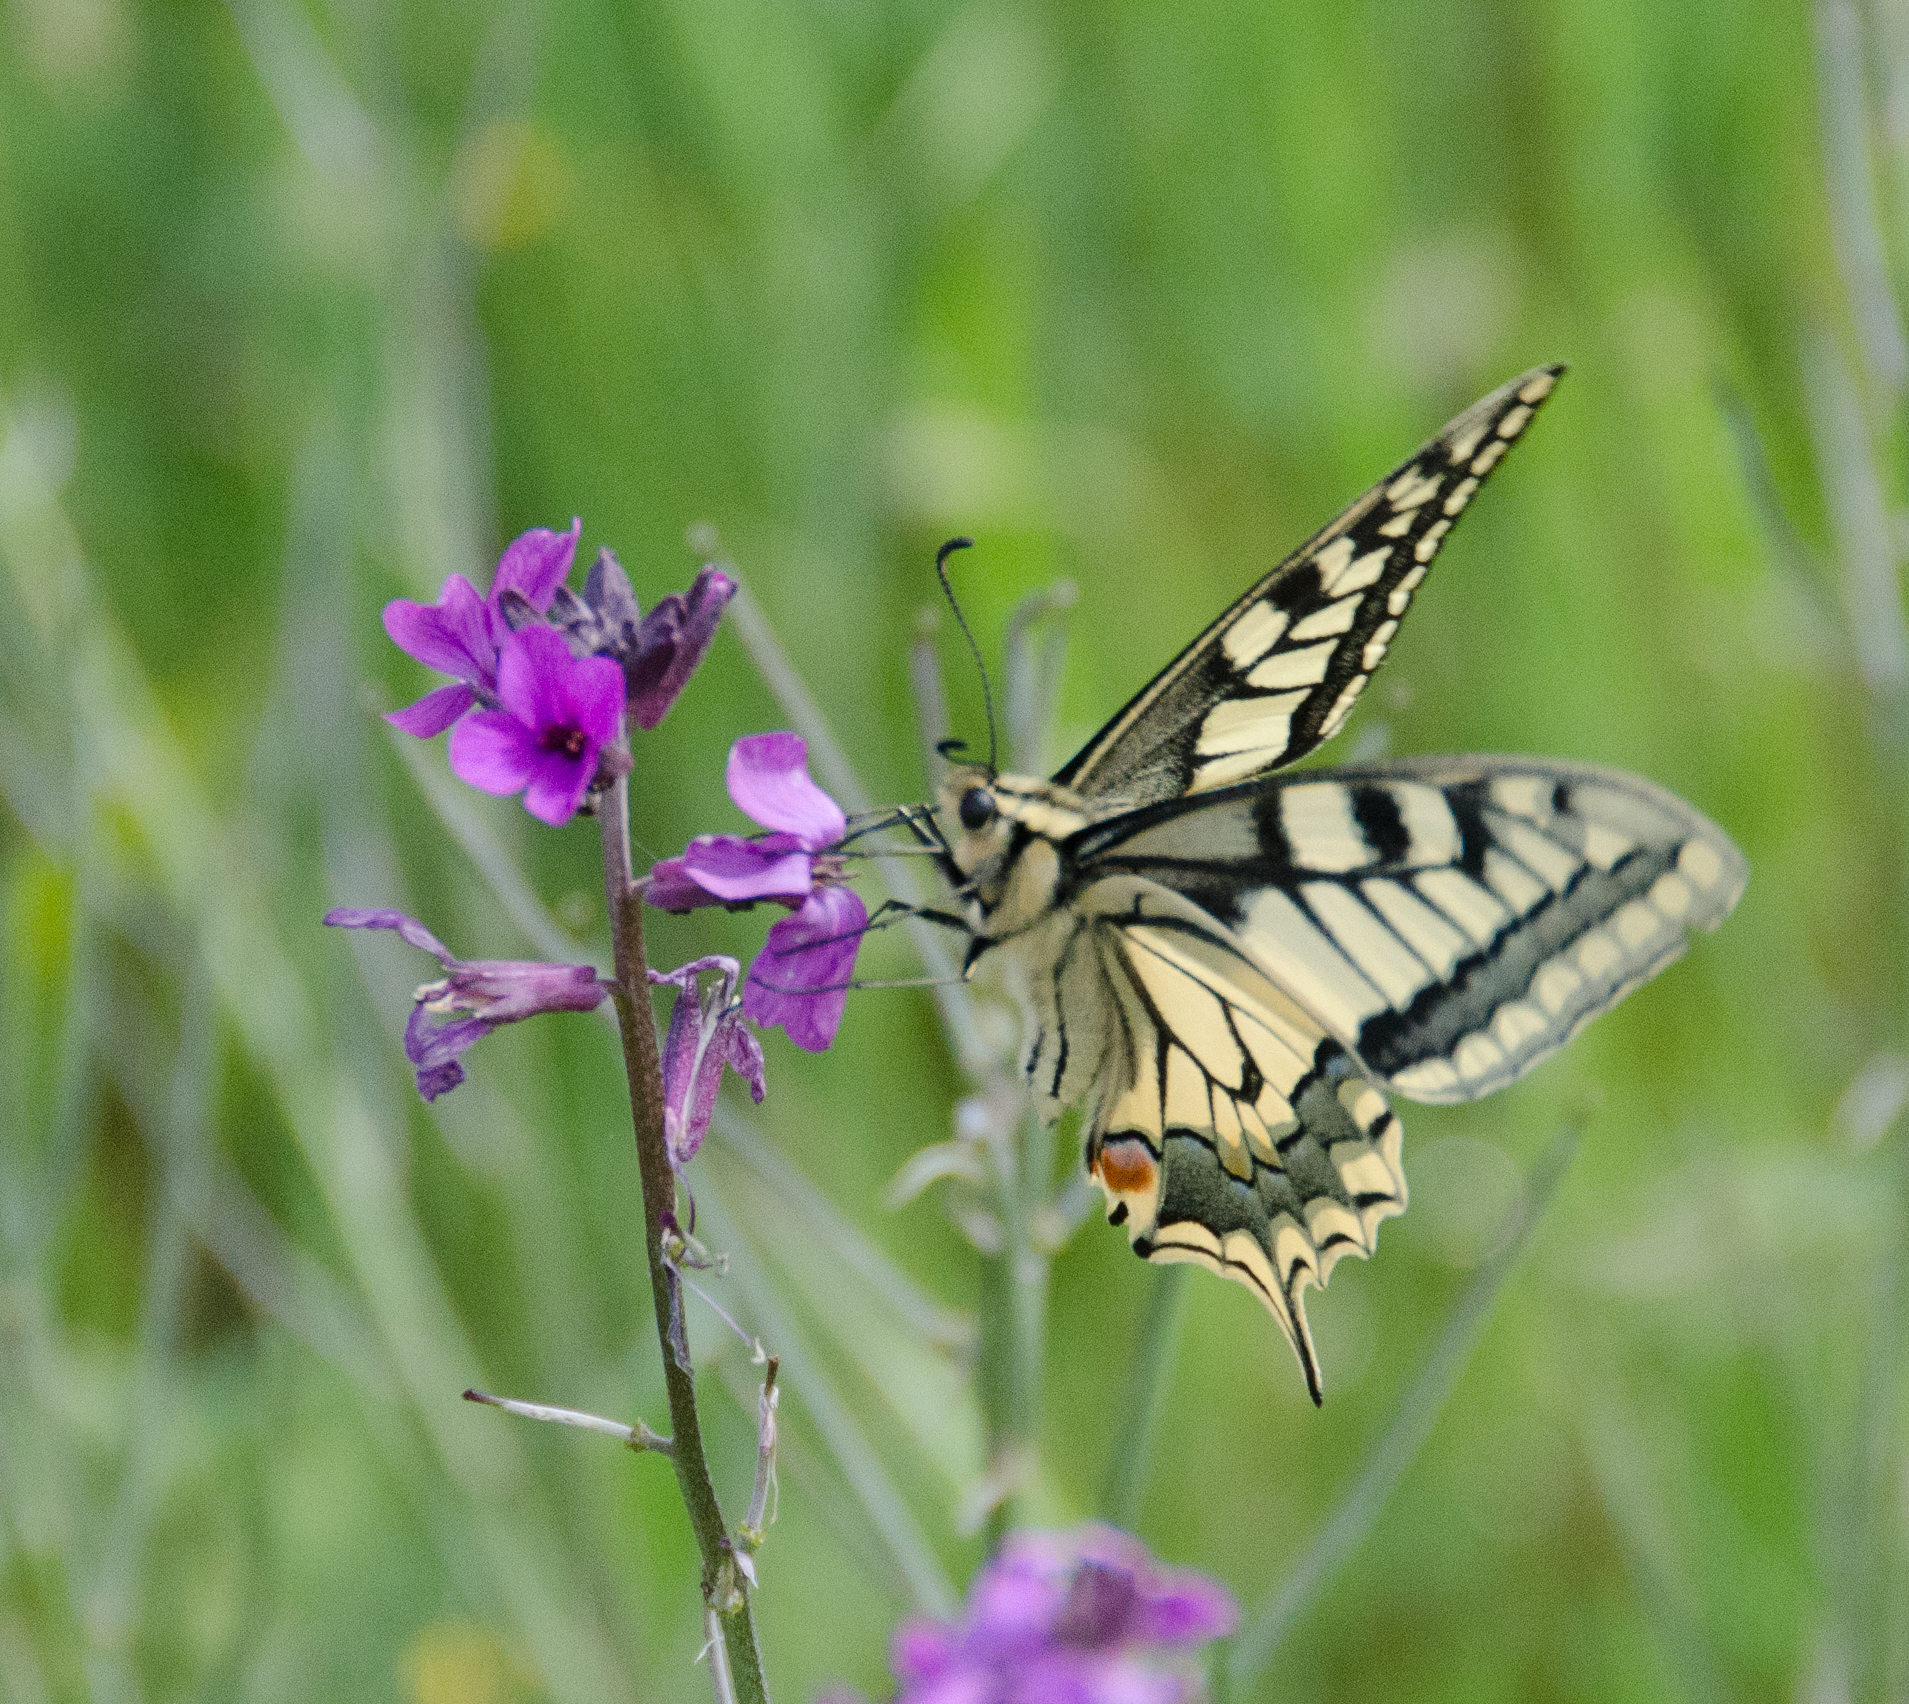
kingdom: Animalia
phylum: Arthropoda
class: Insecta
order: Lepidoptera
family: Papilionidae
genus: Papilio
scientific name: Papilio machaon
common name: Swallowtail
